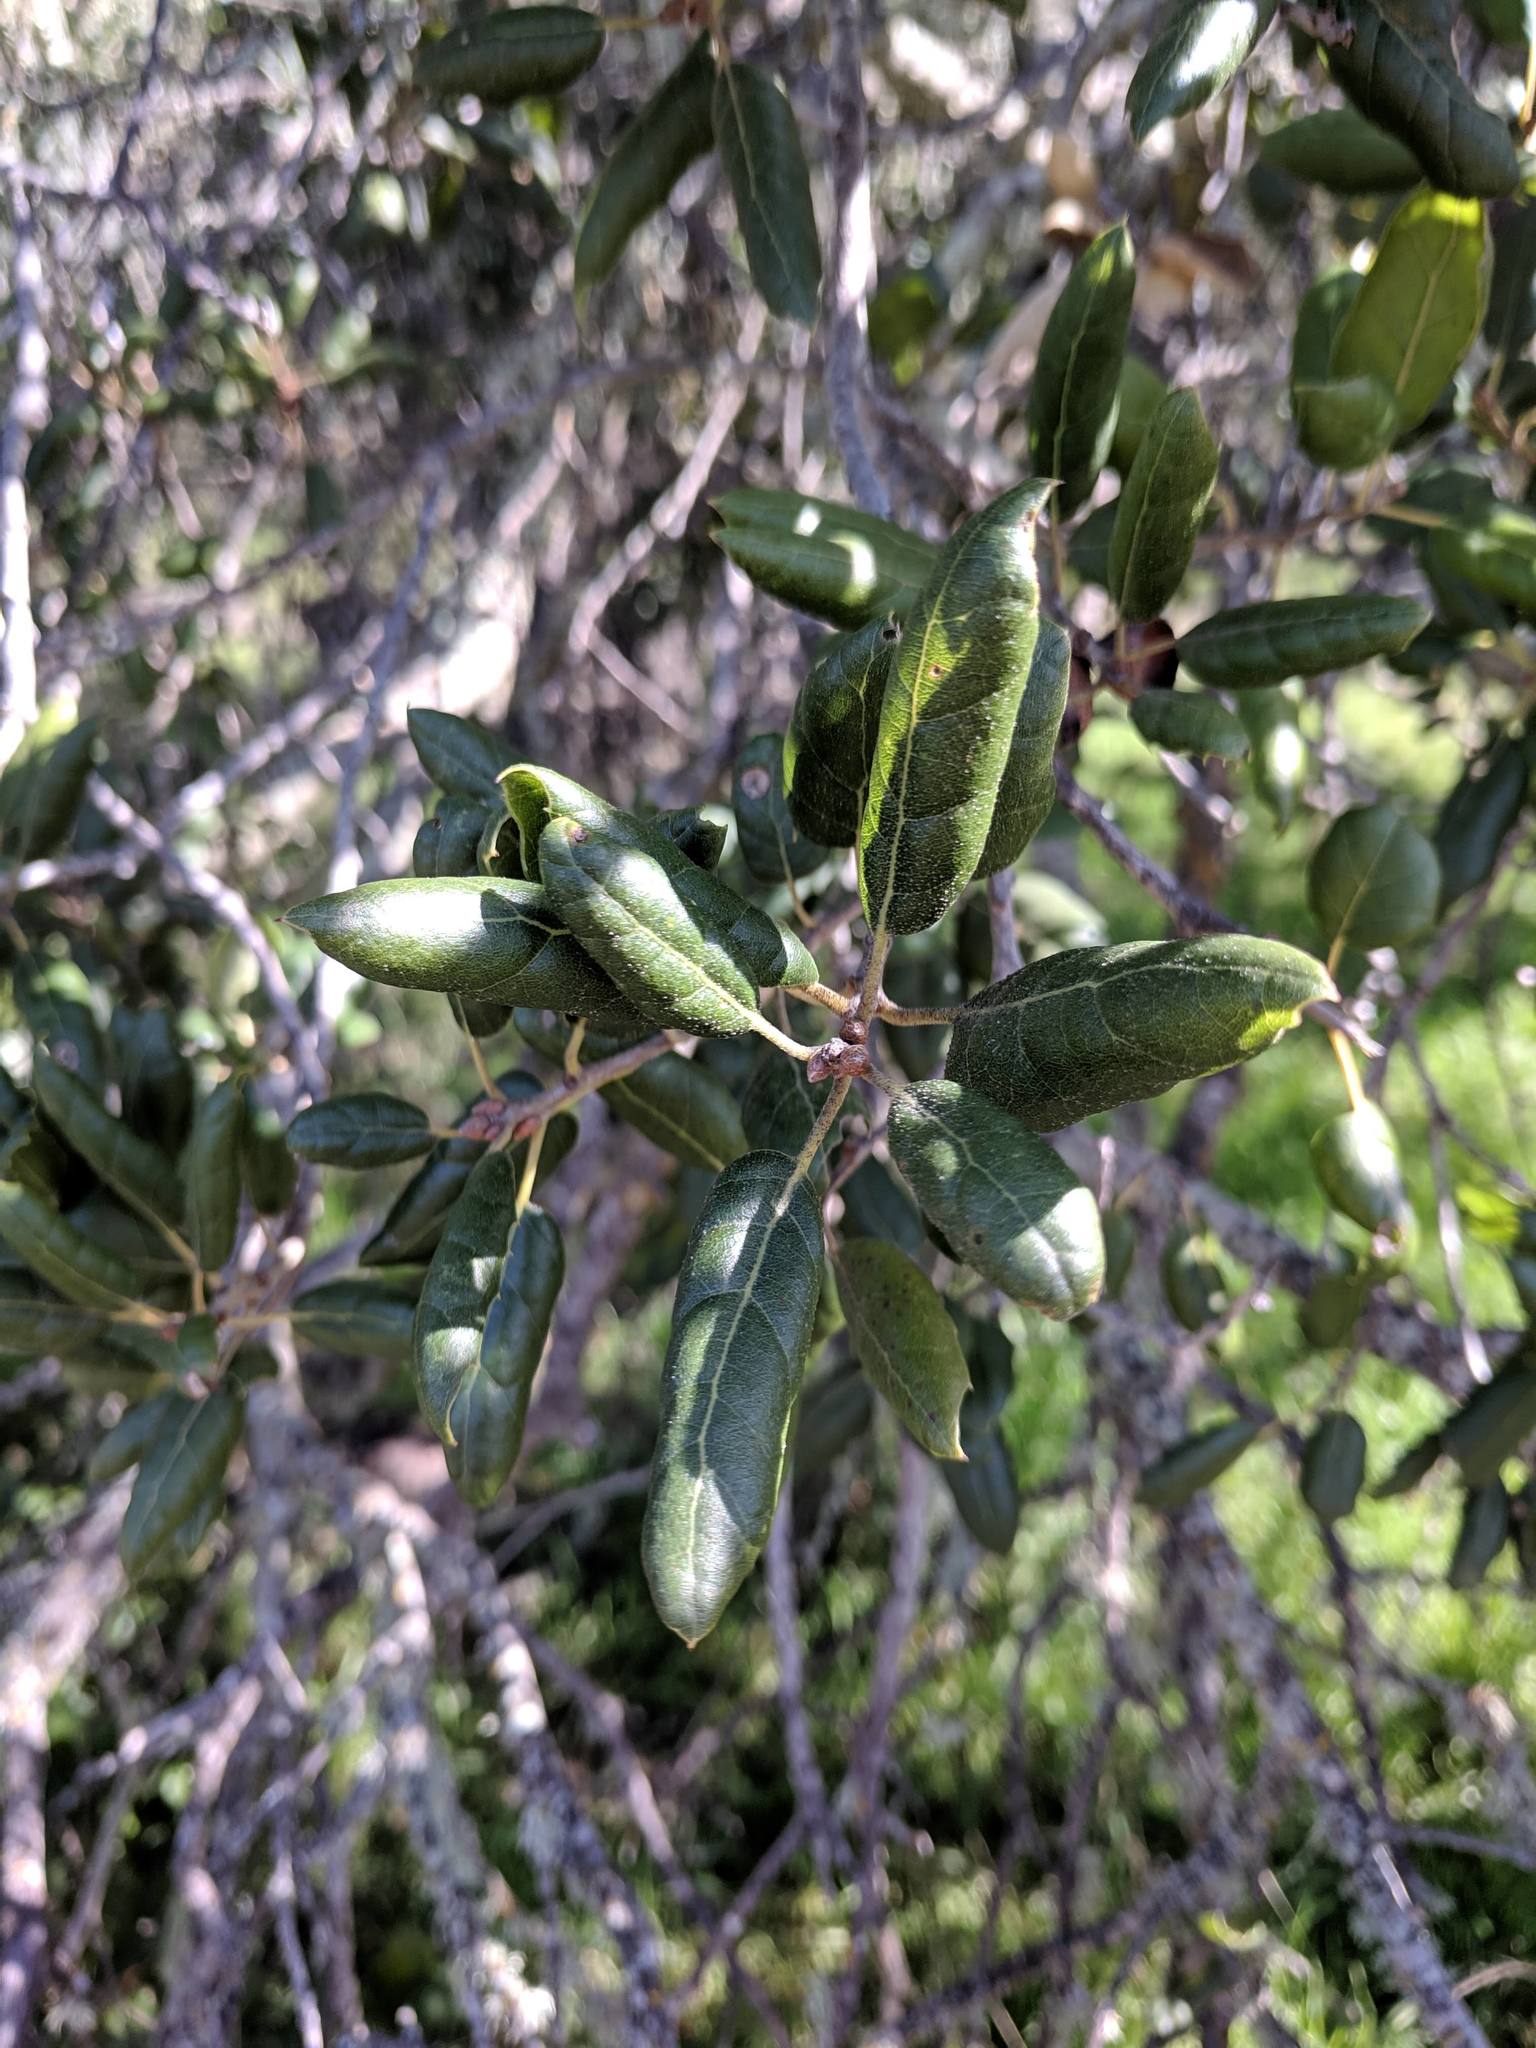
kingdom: Plantae
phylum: Tracheophyta
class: Magnoliopsida
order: Fagales
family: Fagaceae
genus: Quercus
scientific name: Quercus agrifolia
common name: California live oak
